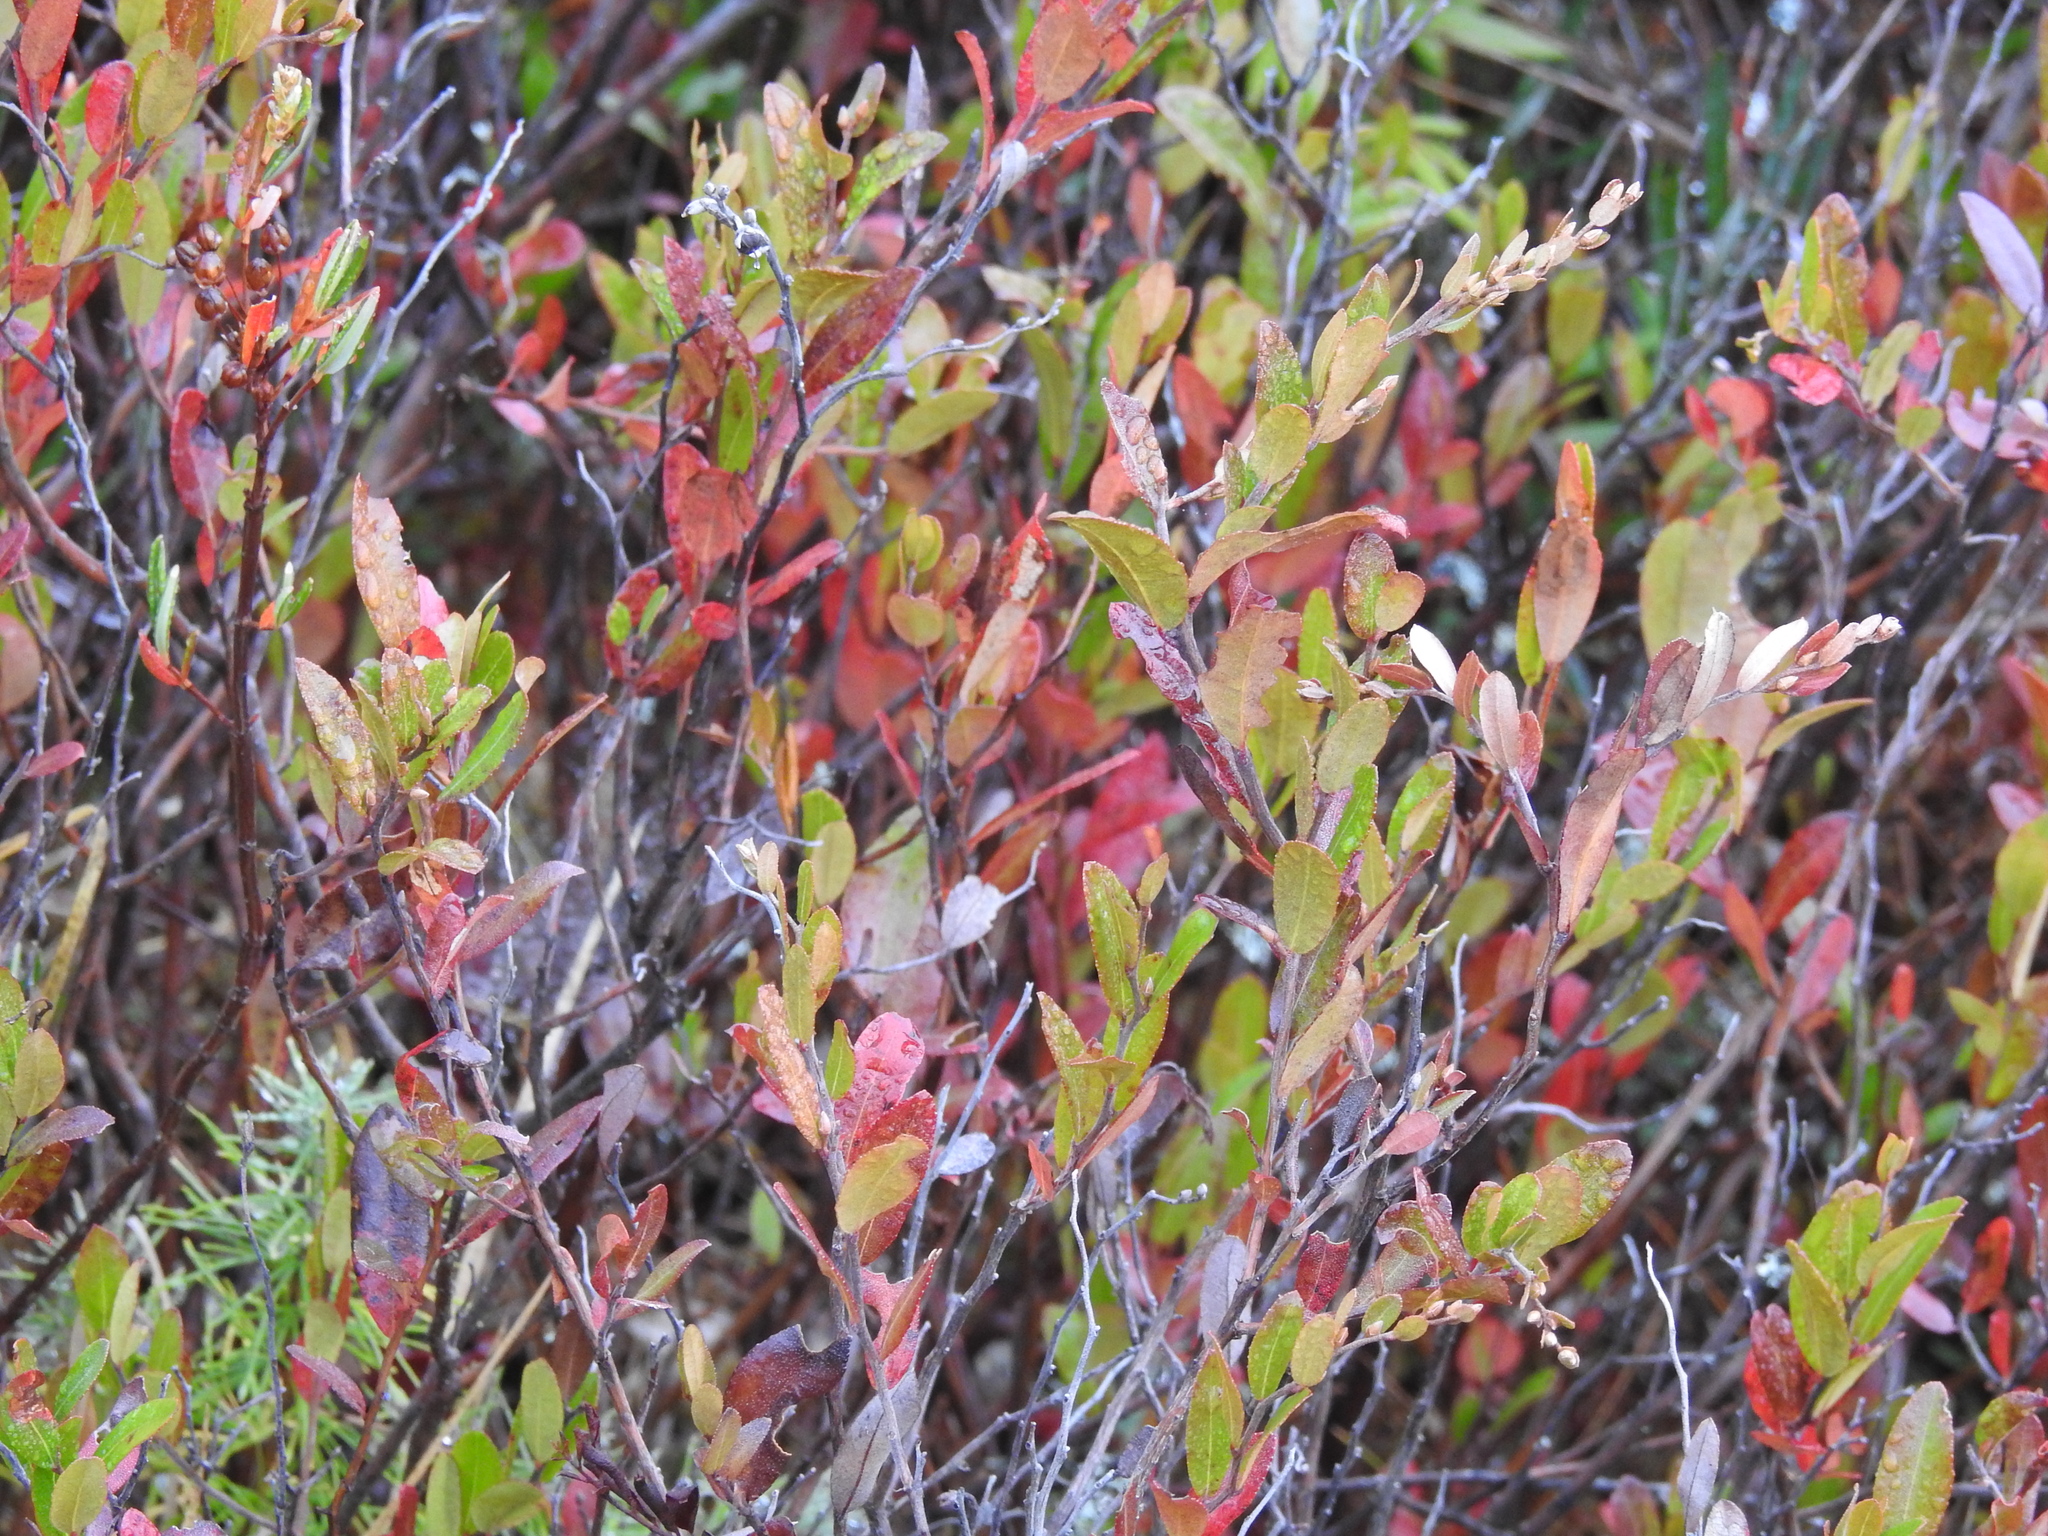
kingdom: Plantae
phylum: Tracheophyta
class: Magnoliopsida
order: Ericales
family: Ericaceae
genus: Chamaedaphne
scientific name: Chamaedaphne calyculata
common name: Leatherleaf
